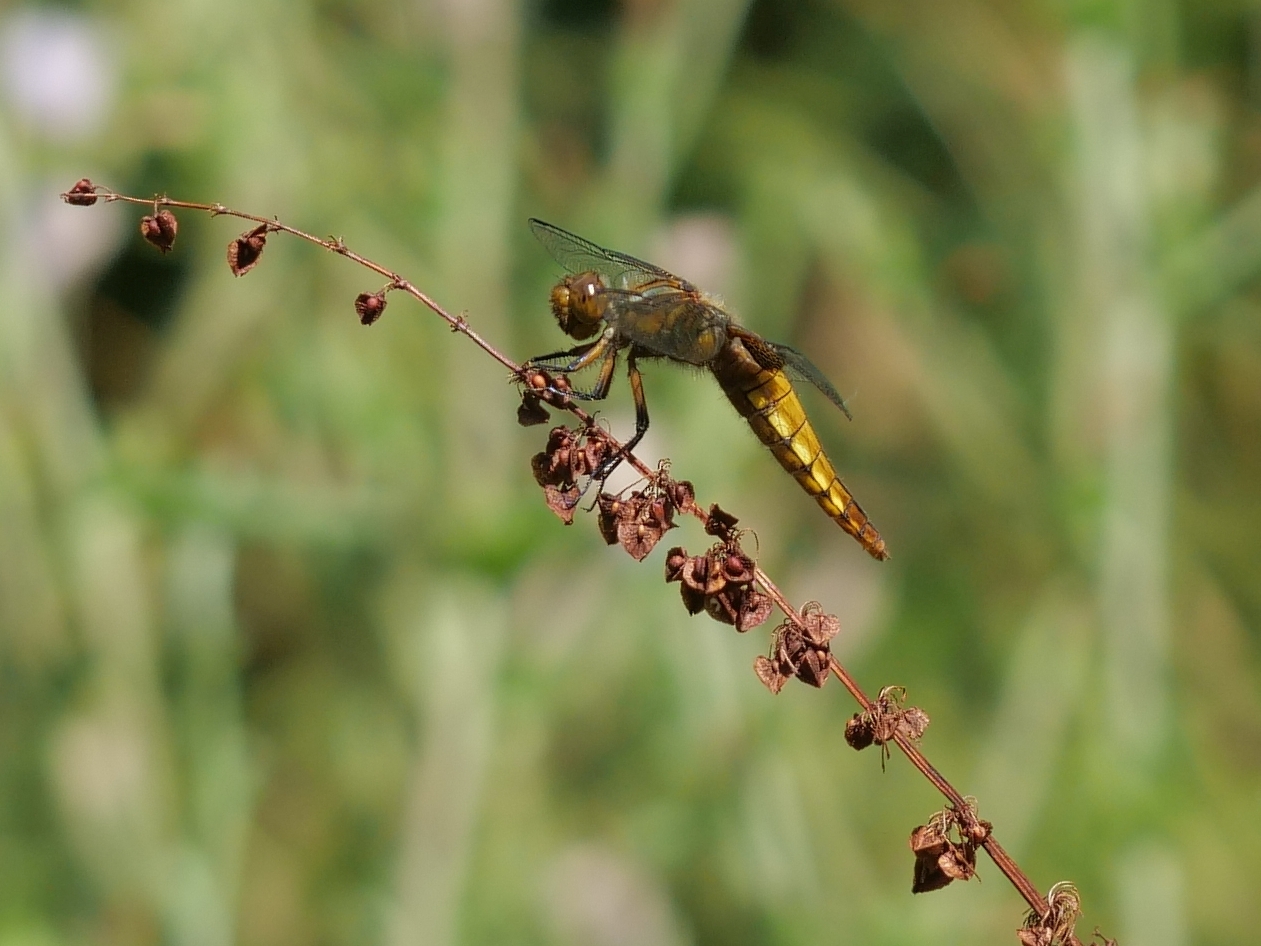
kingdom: Animalia
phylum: Arthropoda
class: Insecta
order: Odonata
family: Libellulidae
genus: Libellula
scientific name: Libellula depressa
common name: Broad-bodied chaser
